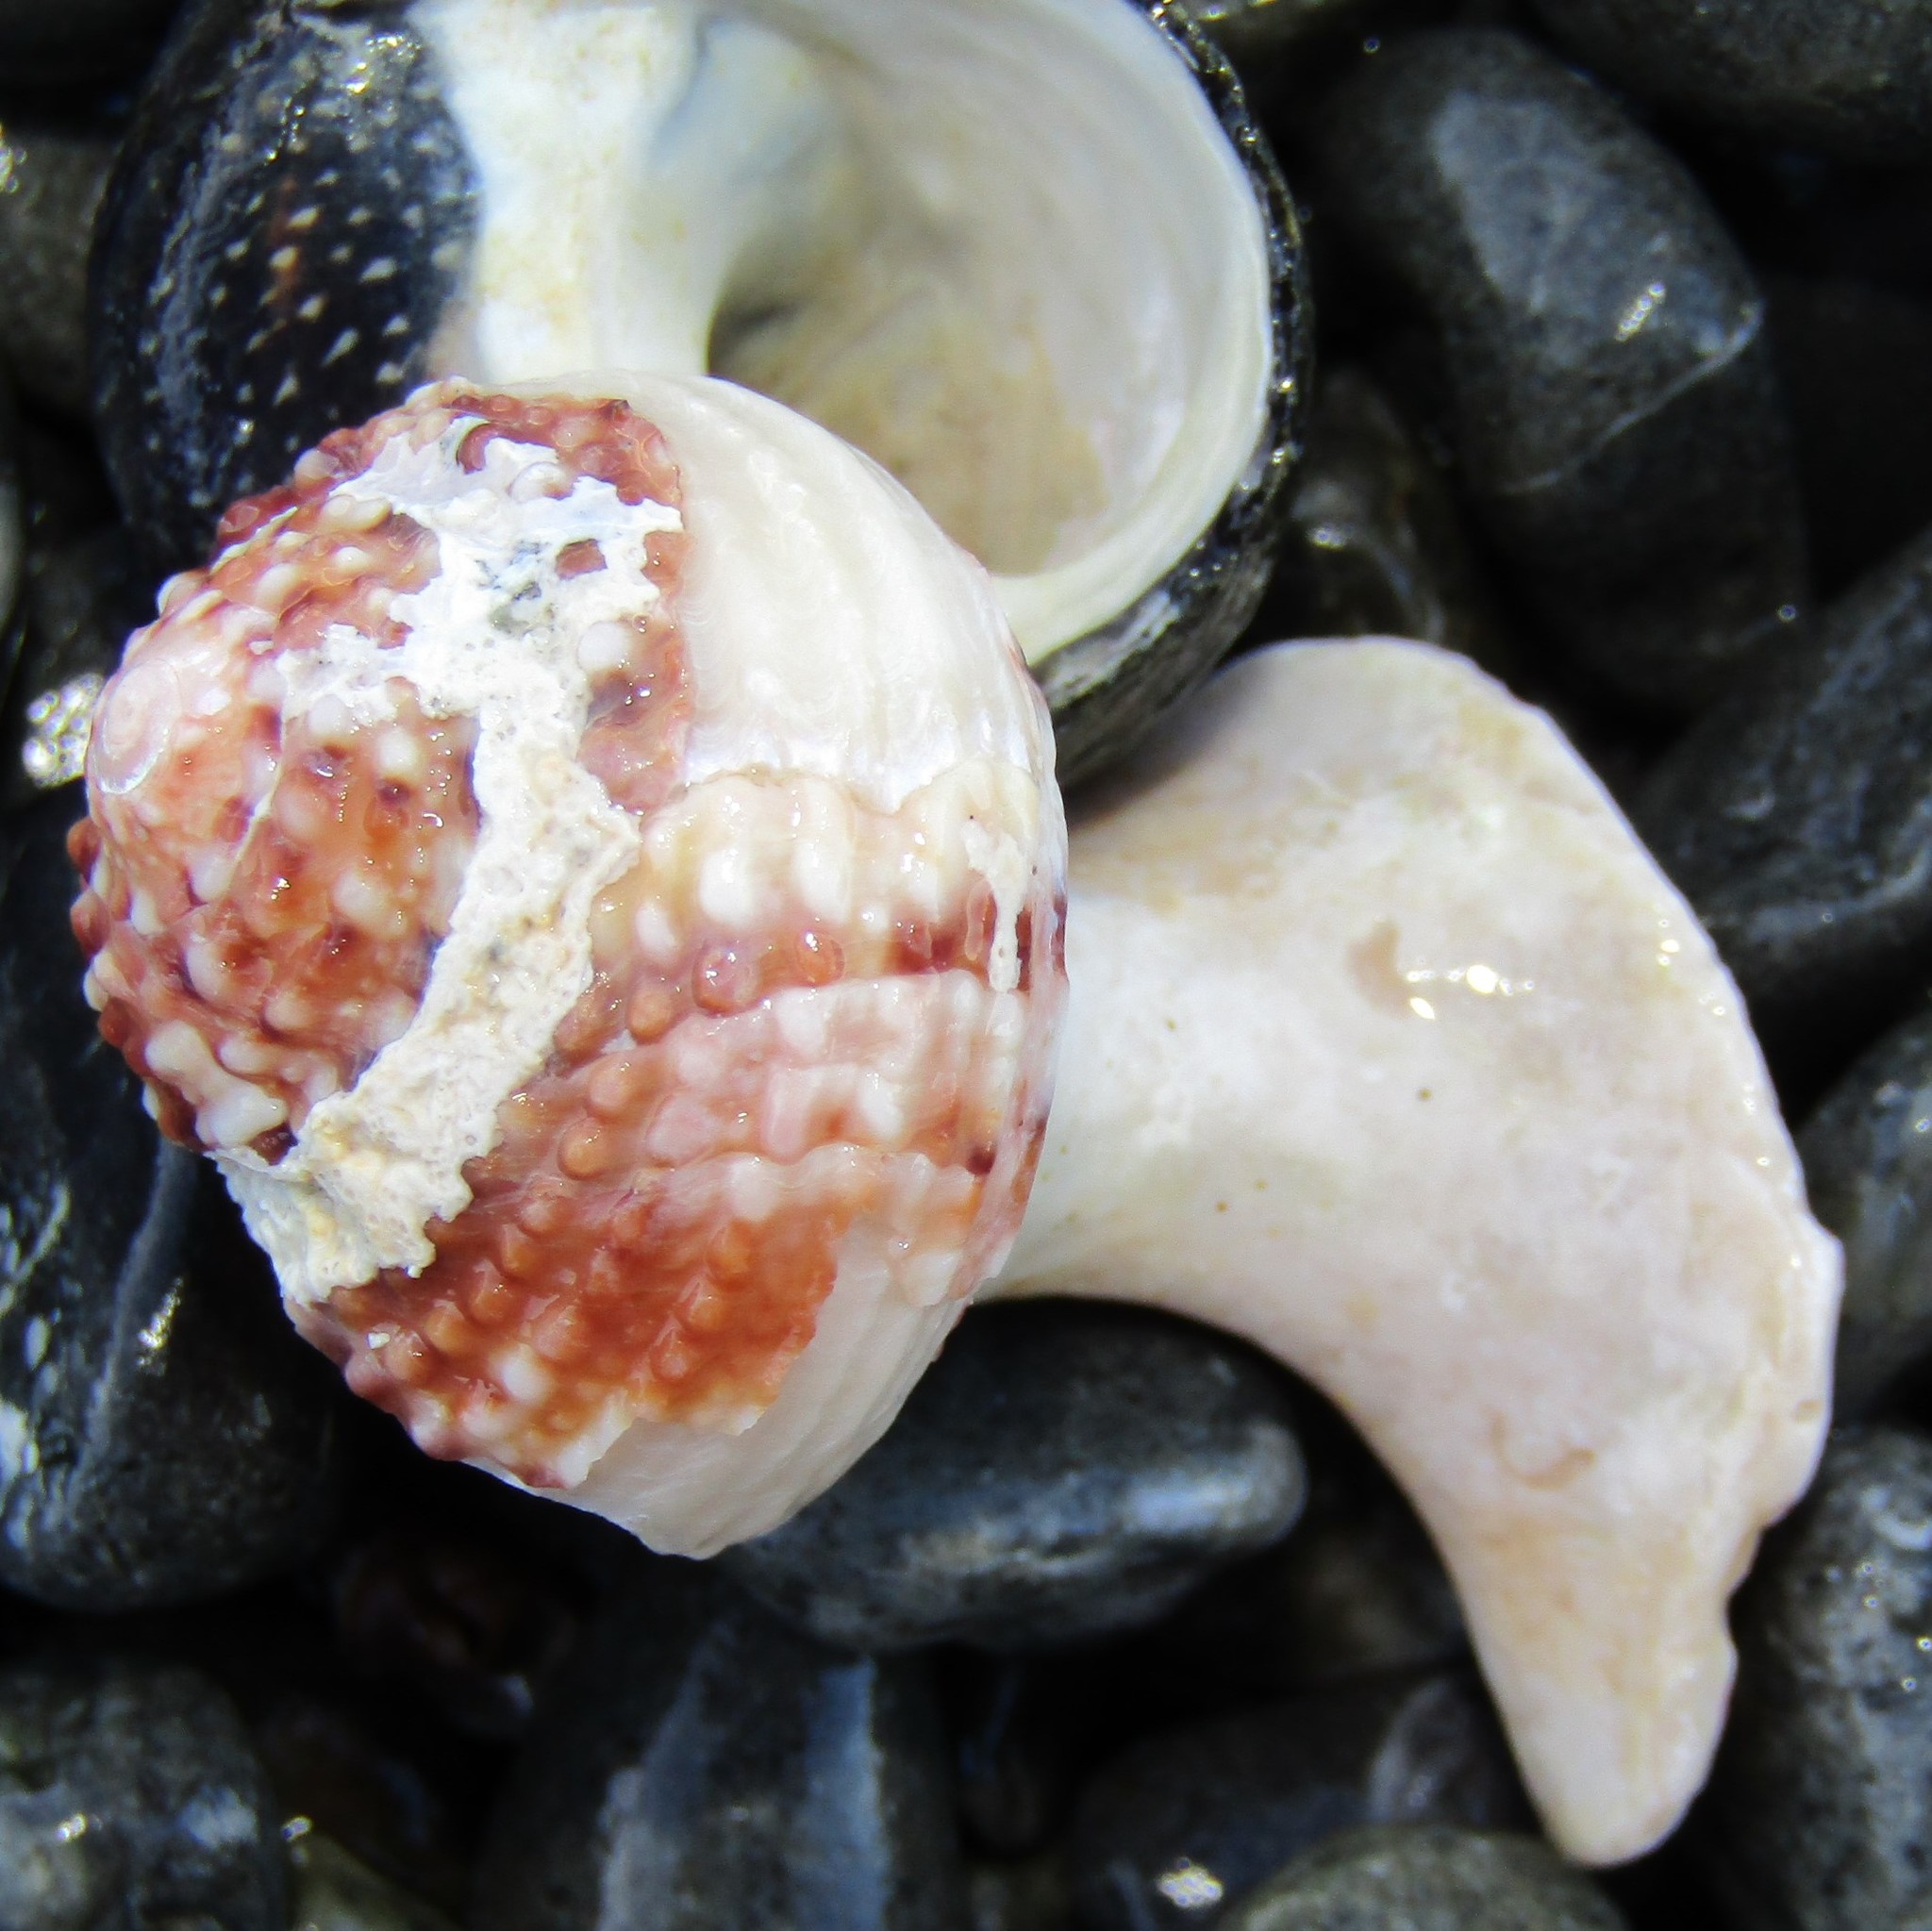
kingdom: Animalia
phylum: Mollusca
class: Gastropoda
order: Trochida
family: Turbinidae
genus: Modelia
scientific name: Modelia granosa
